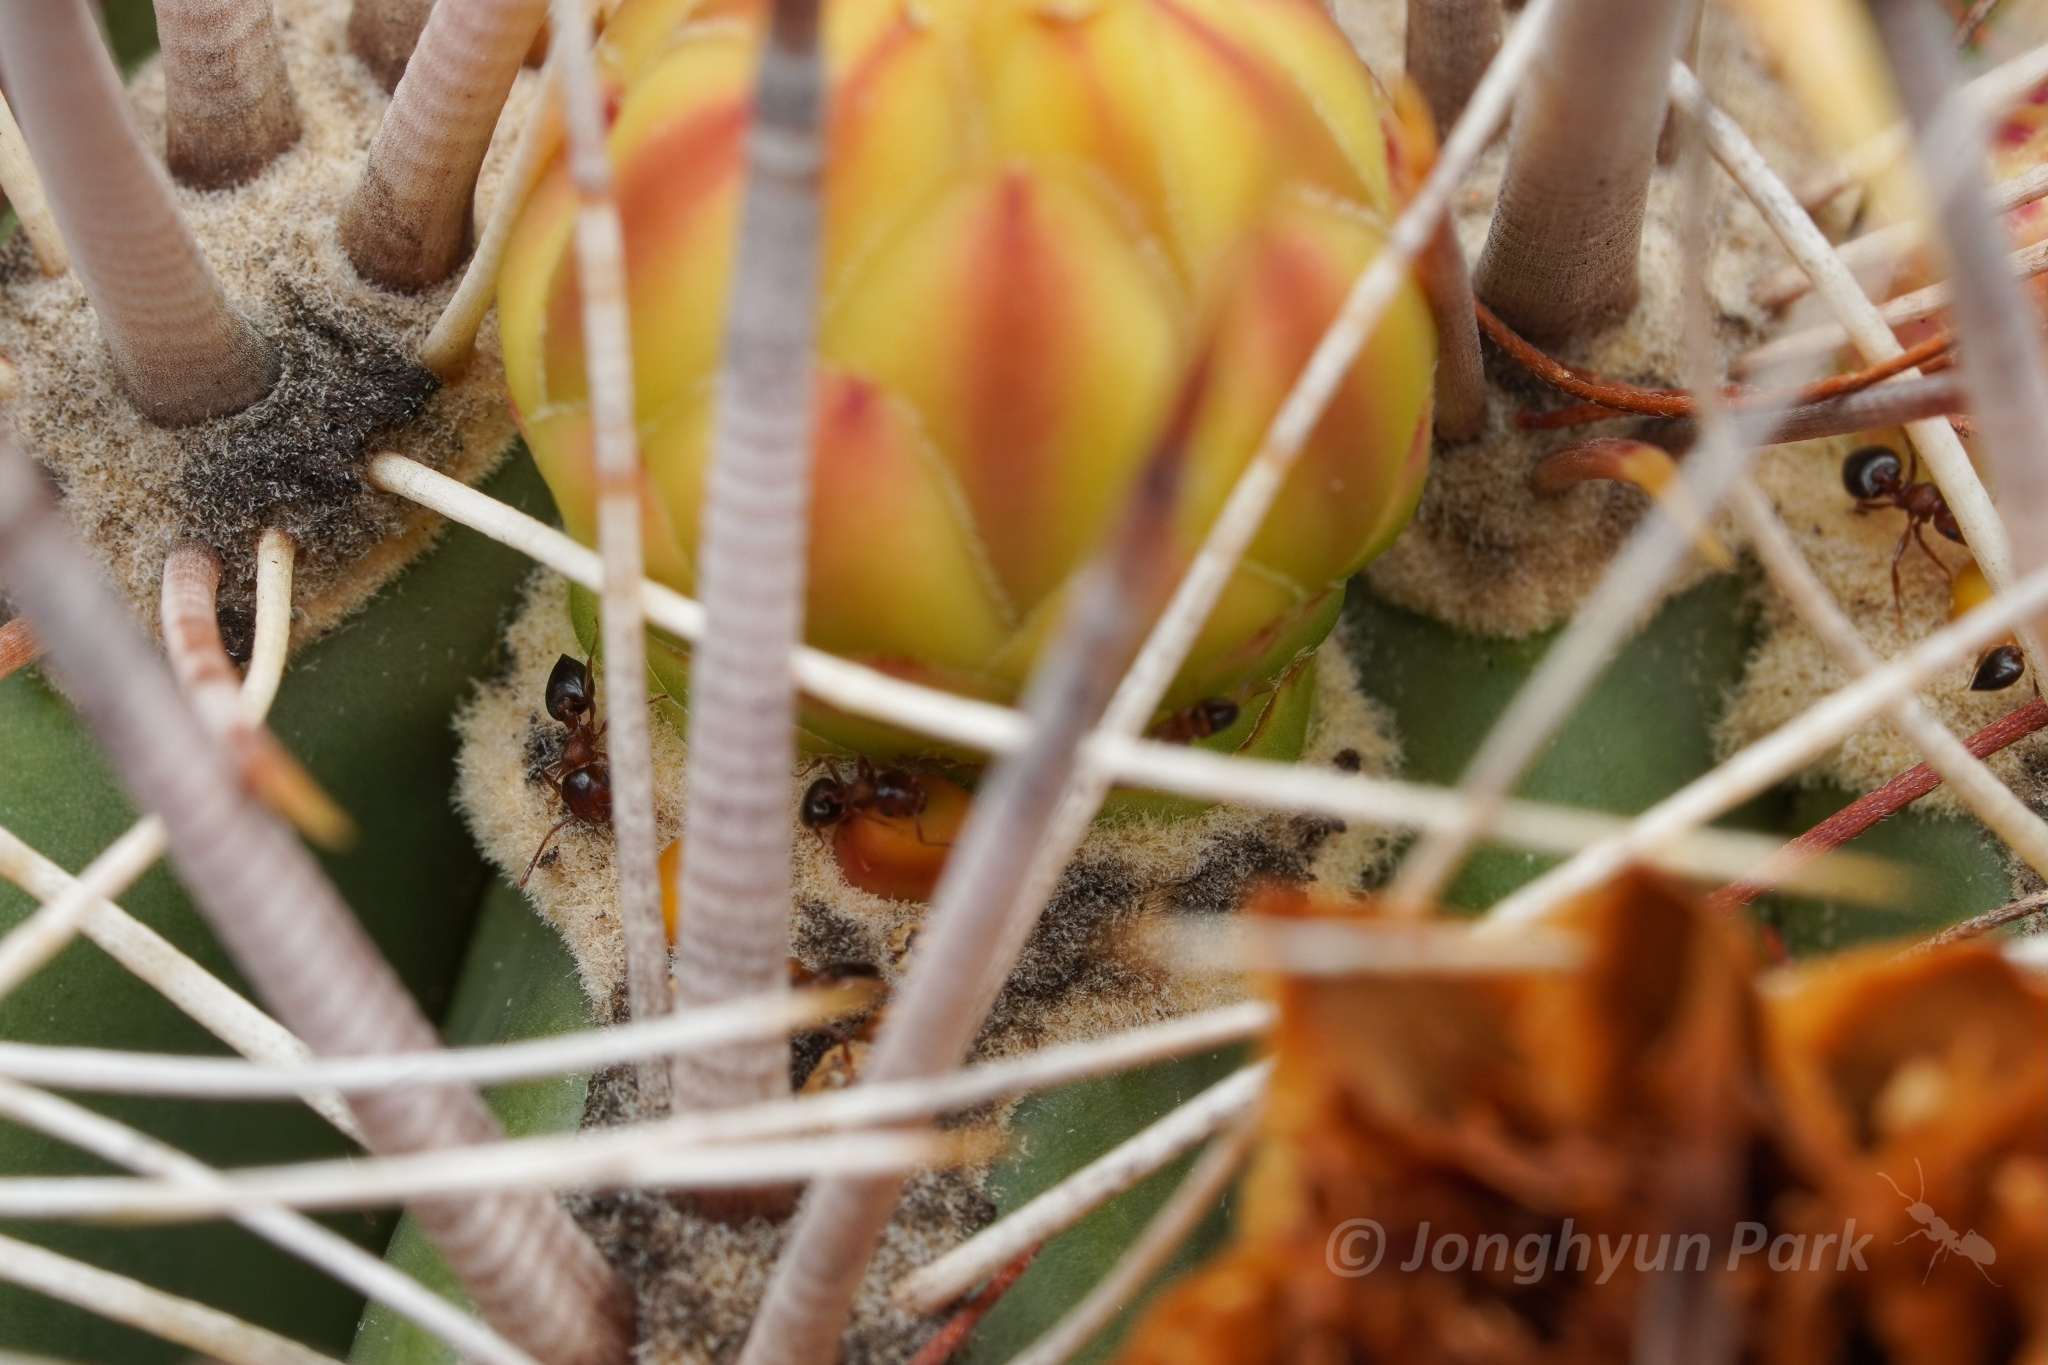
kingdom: Animalia
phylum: Arthropoda
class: Insecta
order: Hymenoptera
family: Formicidae
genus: Crematogaster
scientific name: Crematogaster depilis
